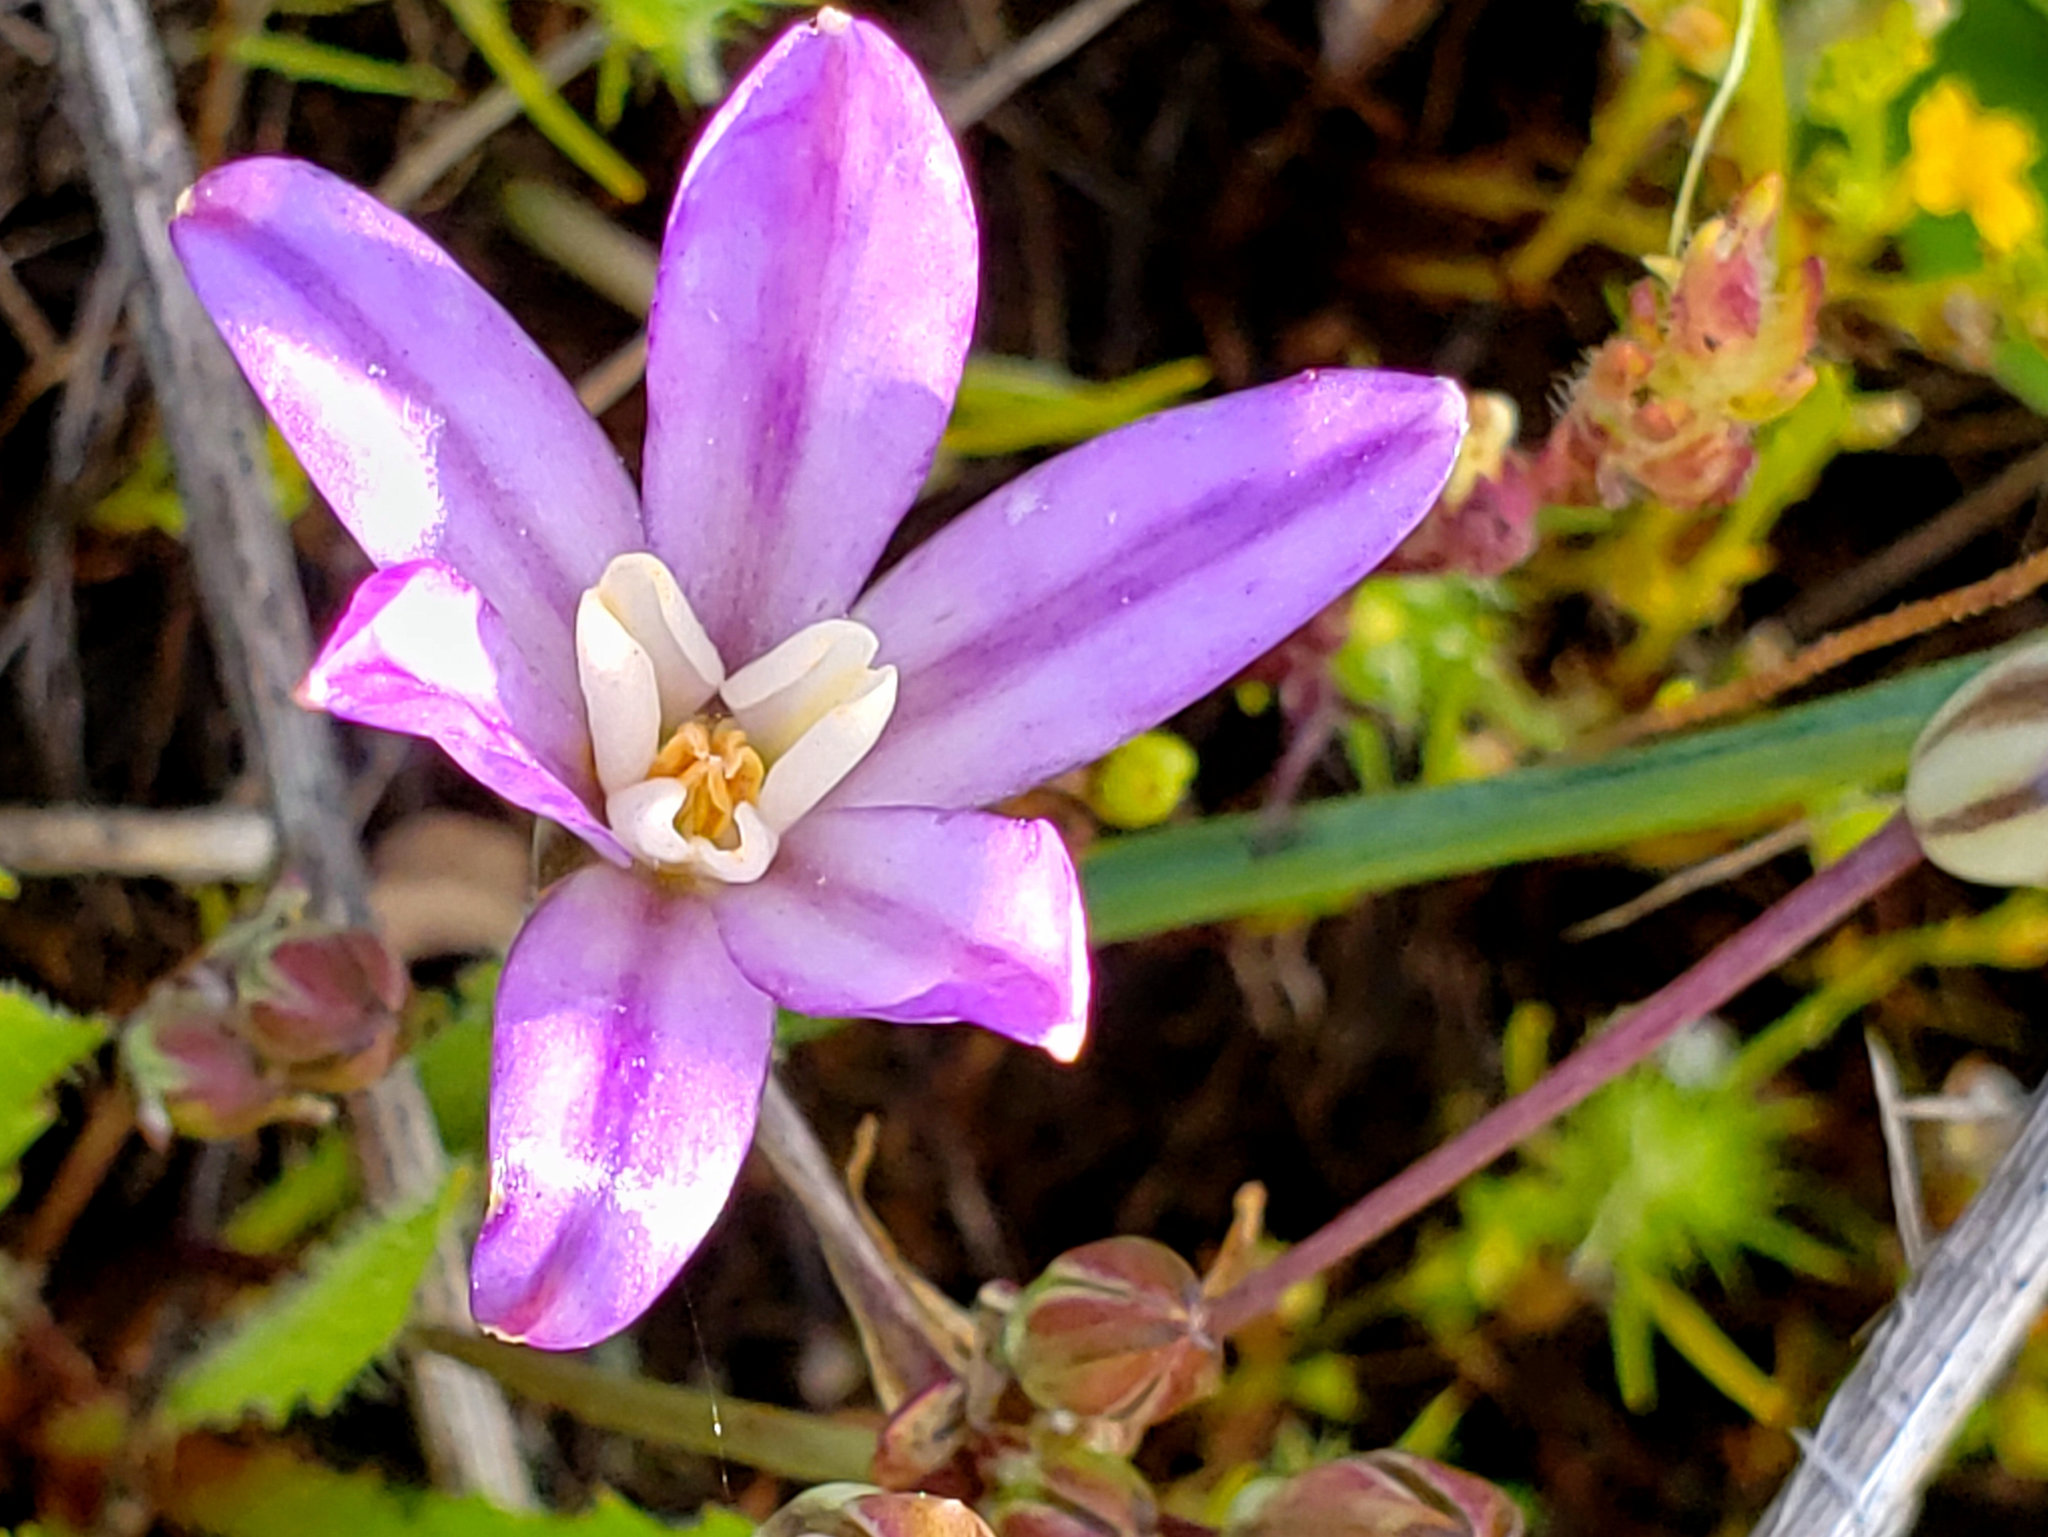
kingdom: Plantae
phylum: Tracheophyta
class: Liliopsida
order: Asparagales
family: Asparagaceae
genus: Brodiaea
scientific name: Brodiaea nana
